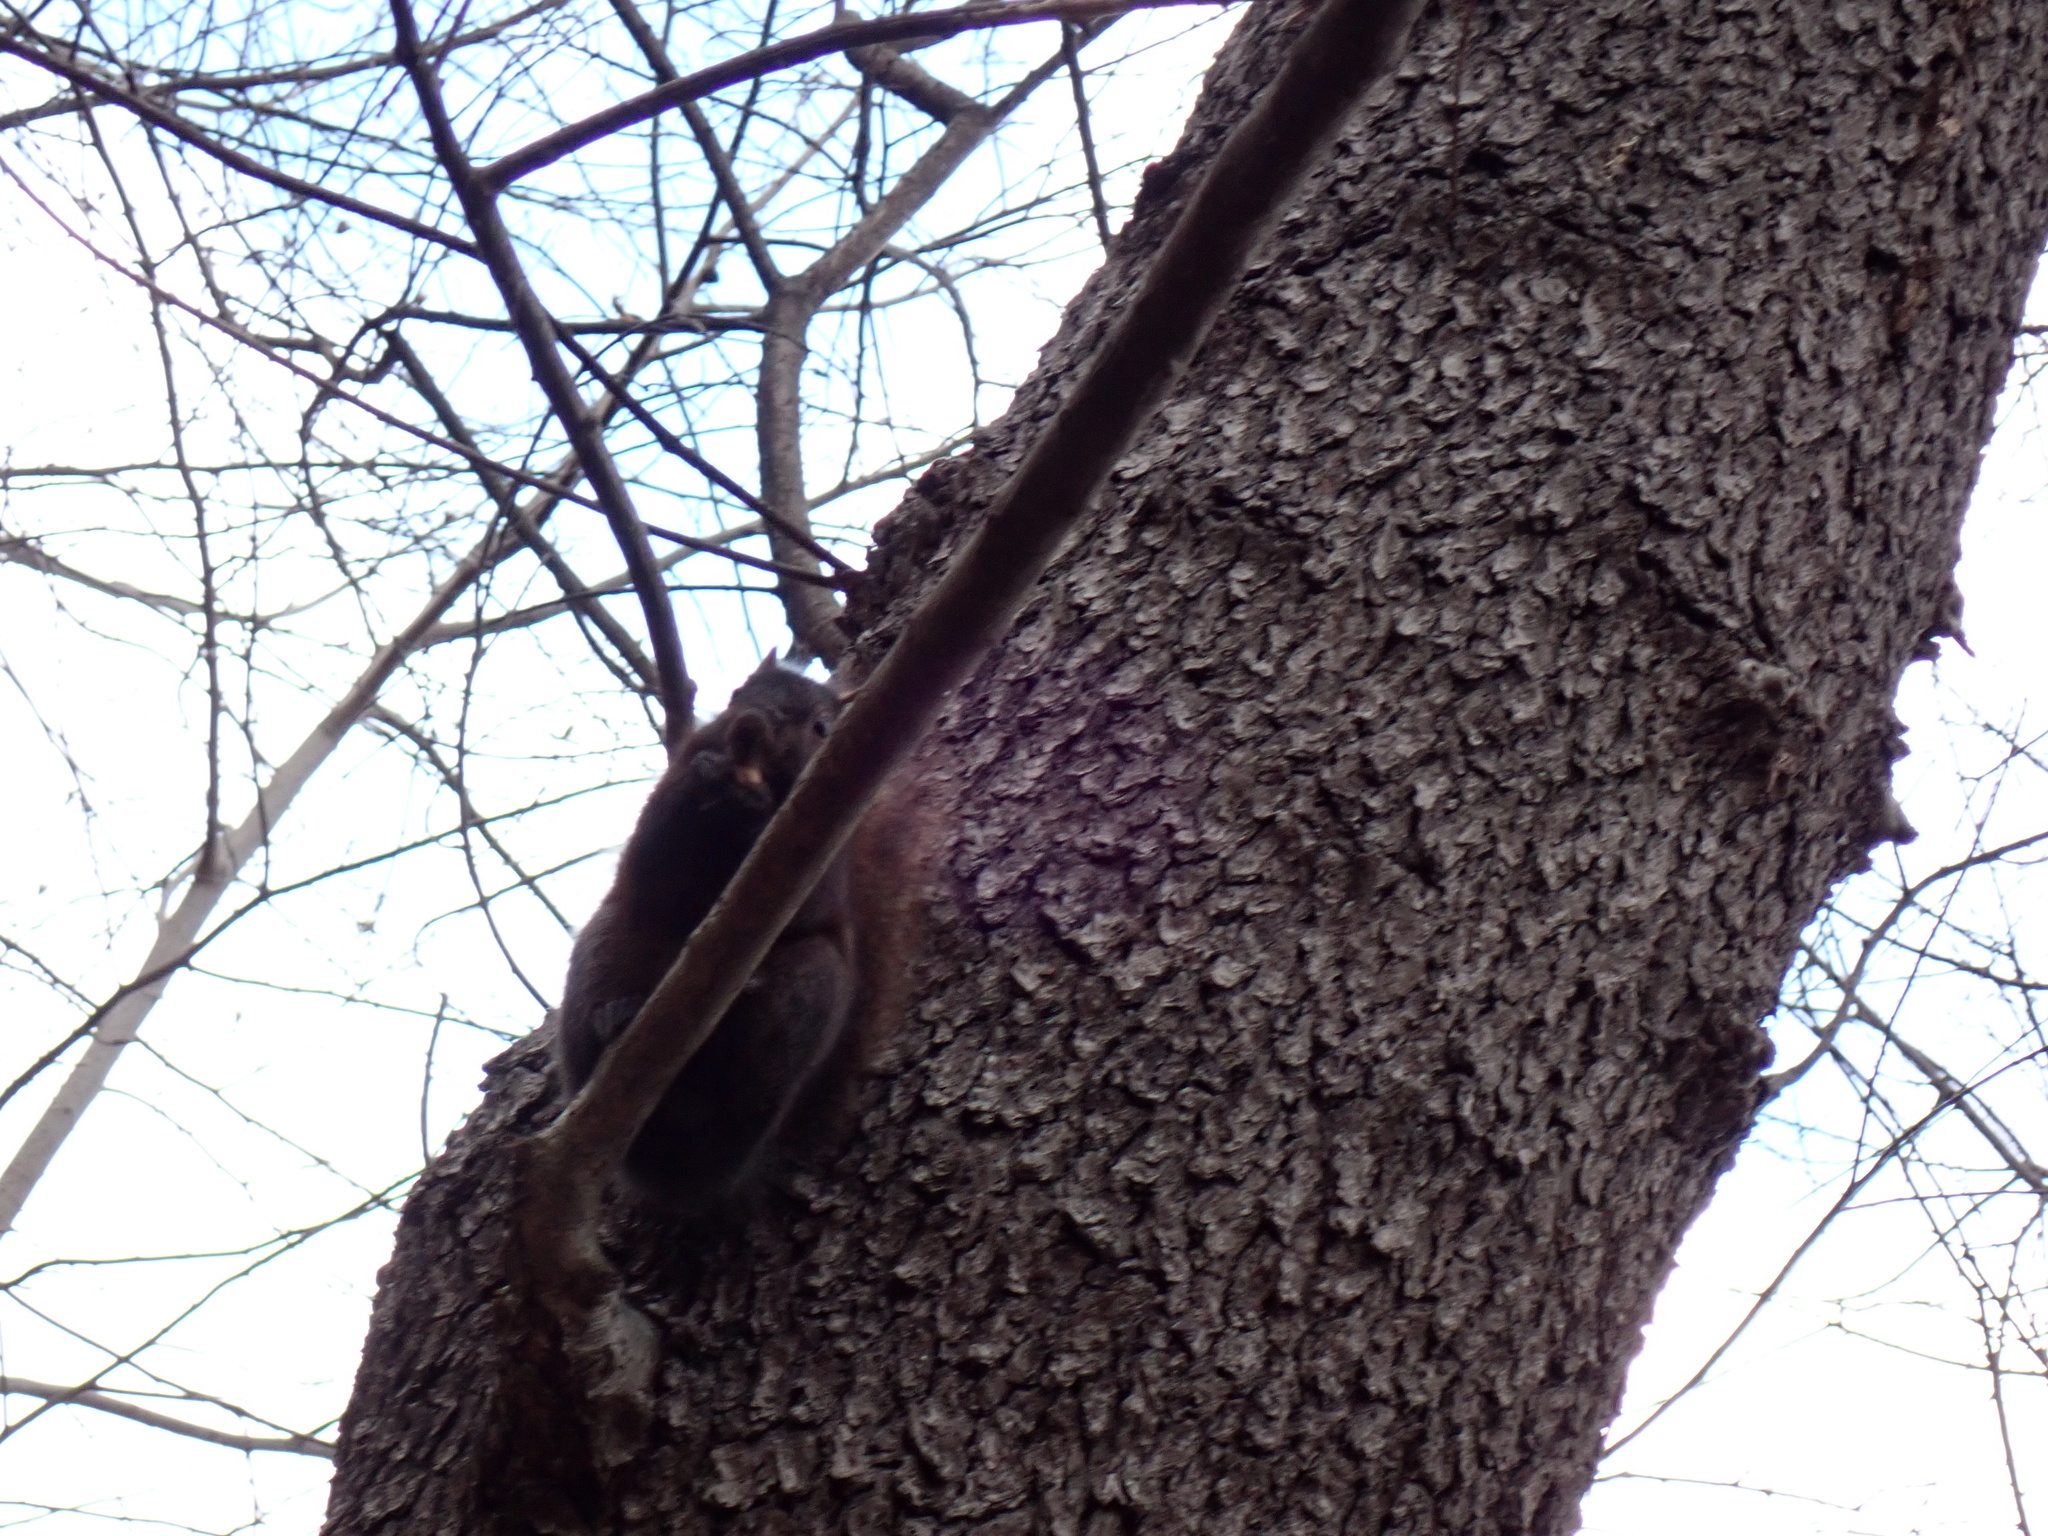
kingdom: Animalia
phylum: Chordata
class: Mammalia
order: Rodentia
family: Sciuridae
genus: Sciurus
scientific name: Sciurus carolinensis
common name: Eastern gray squirrel
